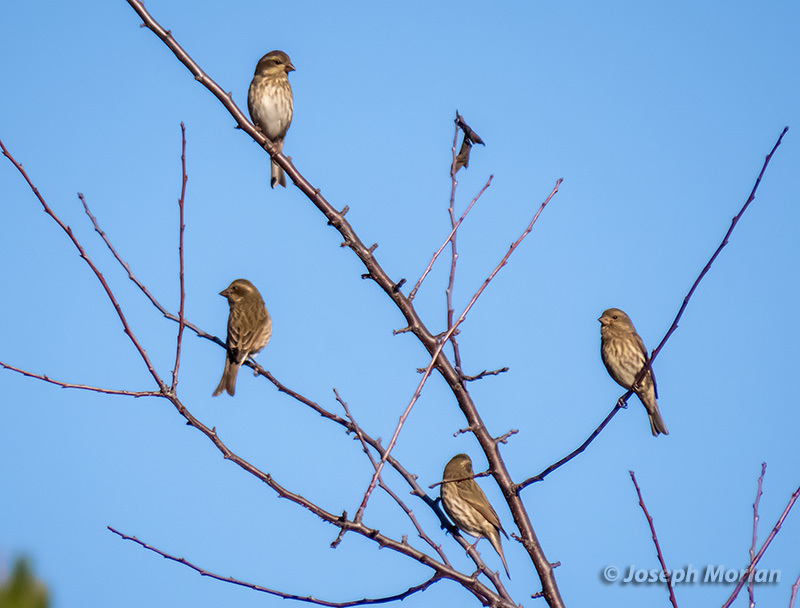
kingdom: Animalia
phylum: Chordata
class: Aves
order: Passeriformes
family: Fringillidae
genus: Haemorhous
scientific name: Haemorhous purpureus
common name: Purple finch
